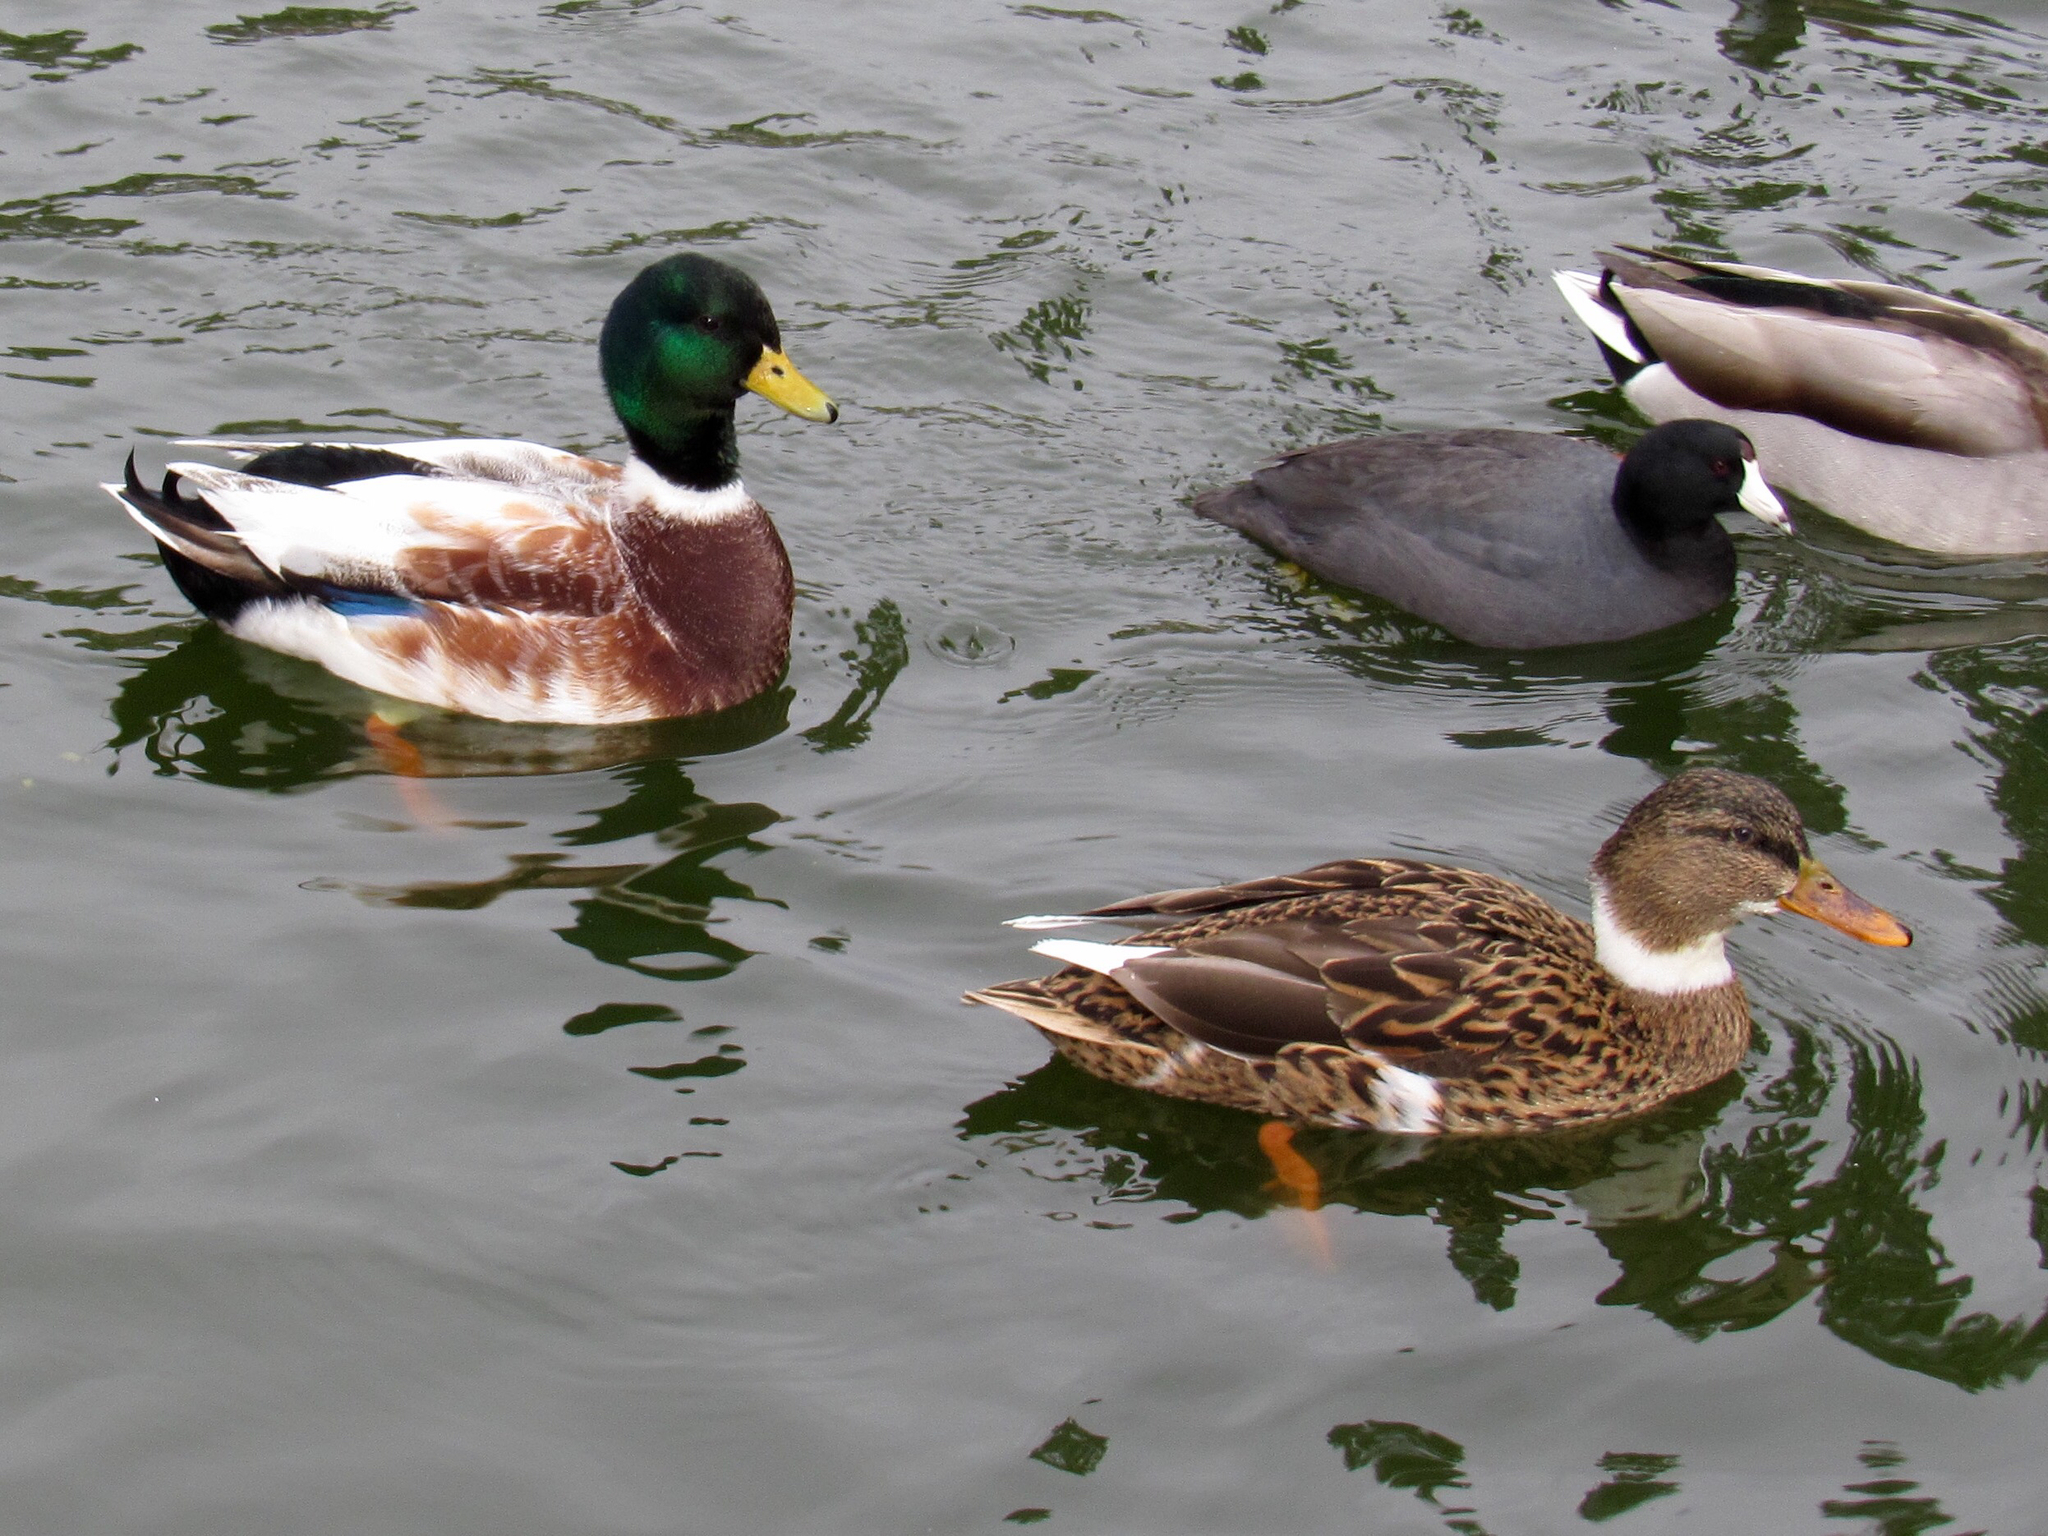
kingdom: Animalia
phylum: Chordata
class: Aves
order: Anseriformes
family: Anatidae
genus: Anas
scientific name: Anas platyrhynchos
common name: Mallard
